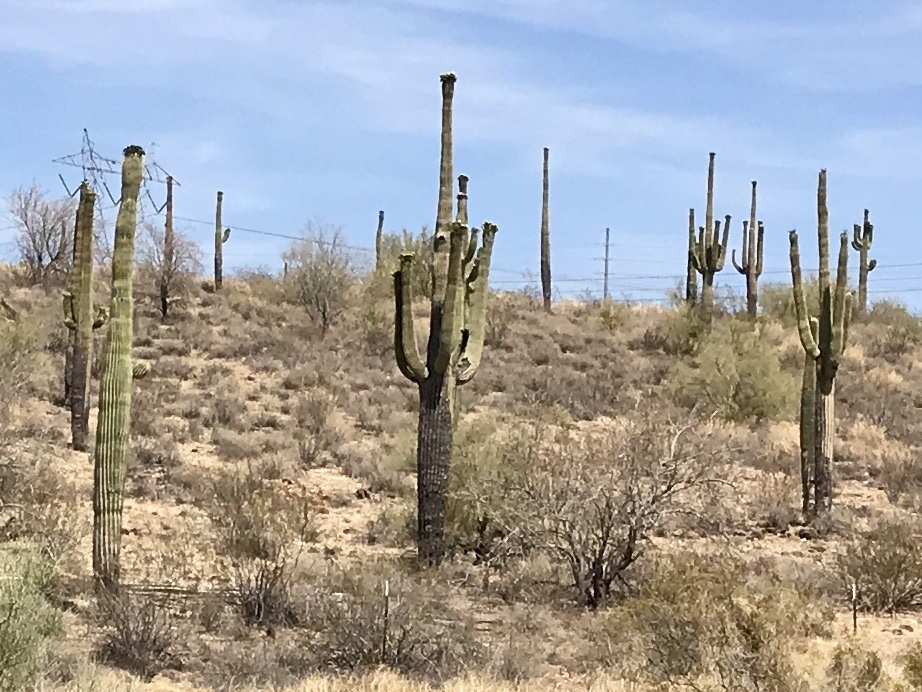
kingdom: Plantae
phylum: Tracheophyta
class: Magnoliopsida
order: Caryophyllales
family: Cactaceae
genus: Carnegiea
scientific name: Carnegiea gigantea
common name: Saguaro
